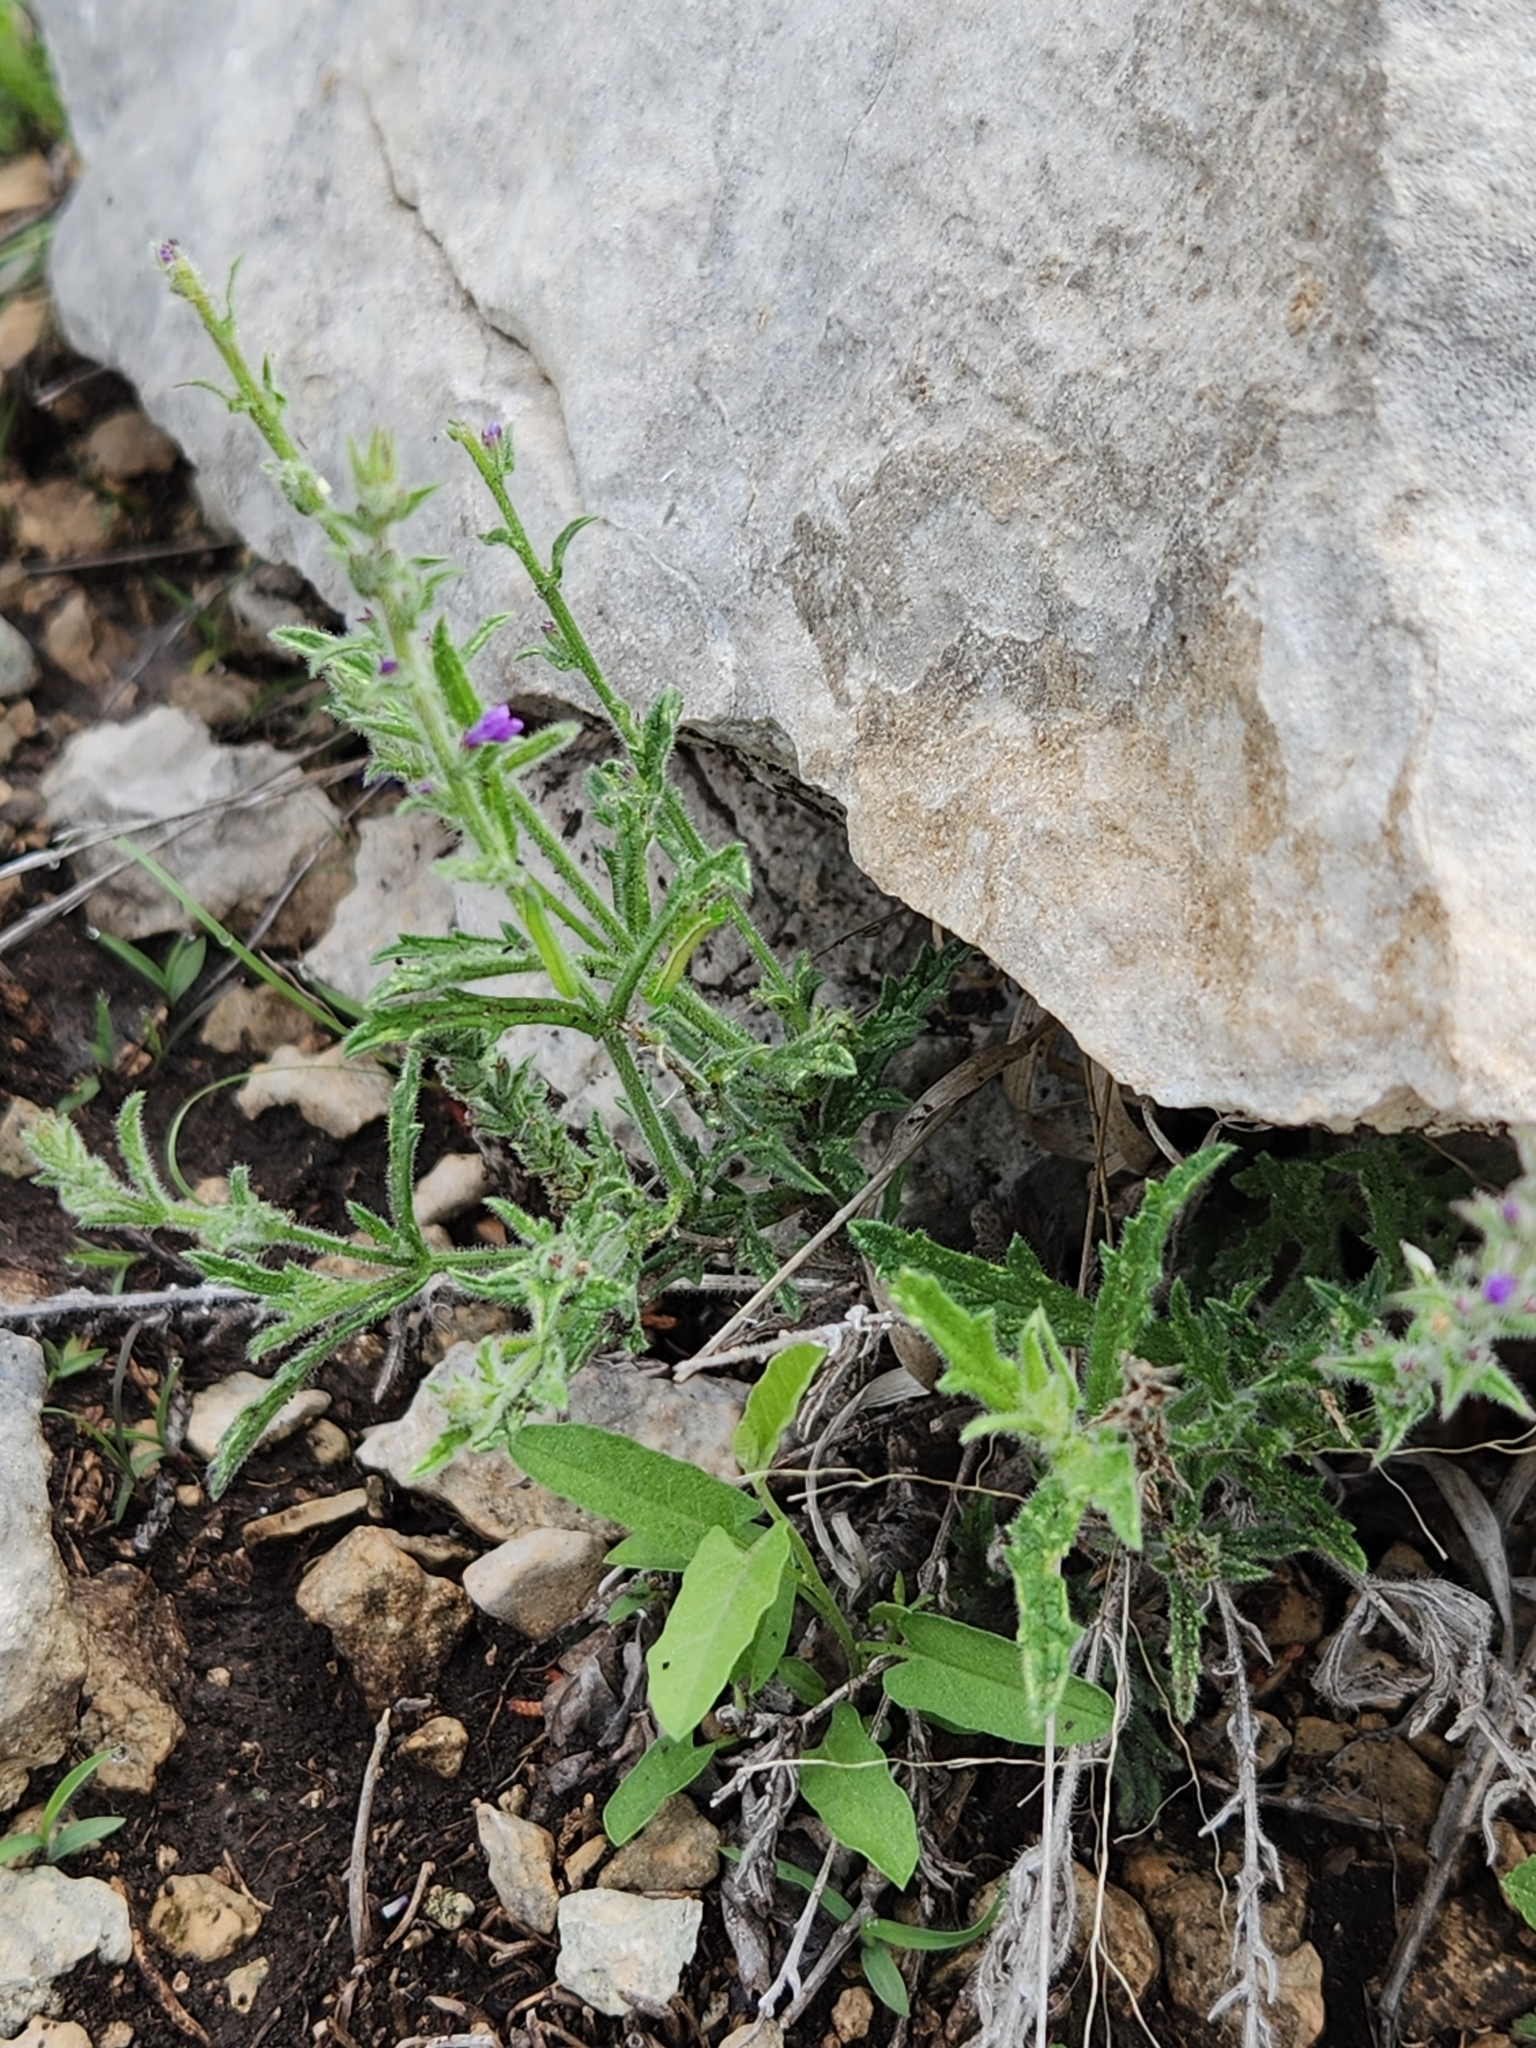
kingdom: Plantae
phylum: Tracheophyta
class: Magnoliopsida
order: Lamiales
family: Verbenaceae
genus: Verbena
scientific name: Verbena canescens
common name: Gray vervain
